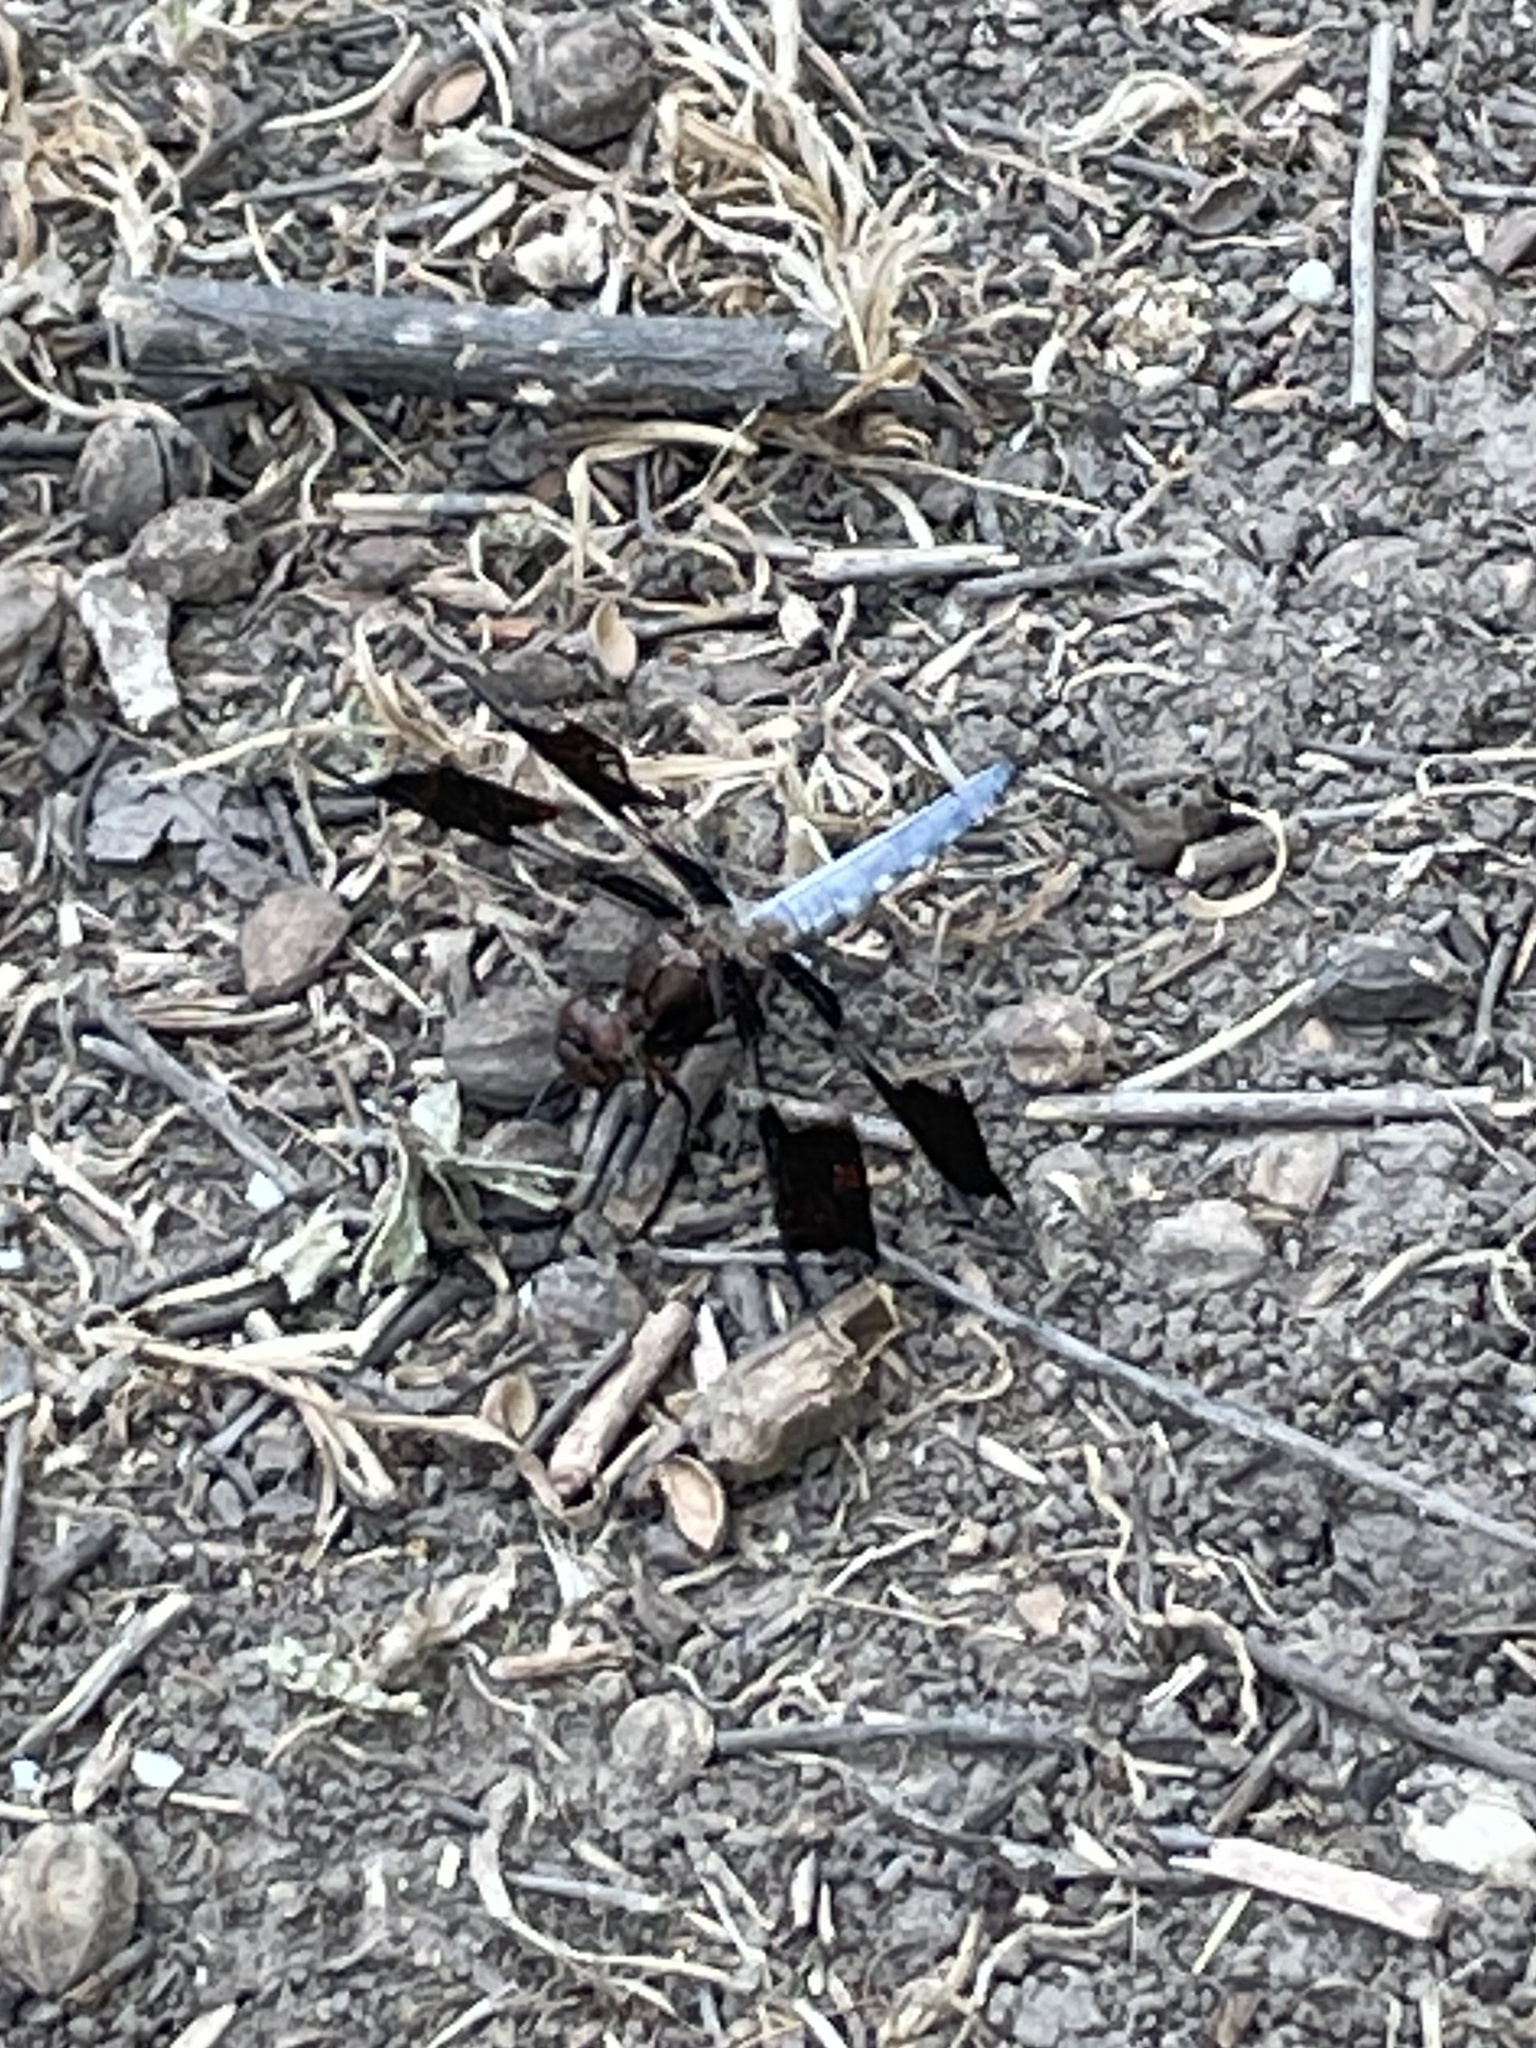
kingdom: Animalia
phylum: Arthropoda
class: Insecta
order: Odonata
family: Libellulidae
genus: Plathemis
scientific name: Plathemis lydia
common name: Common whitetail
